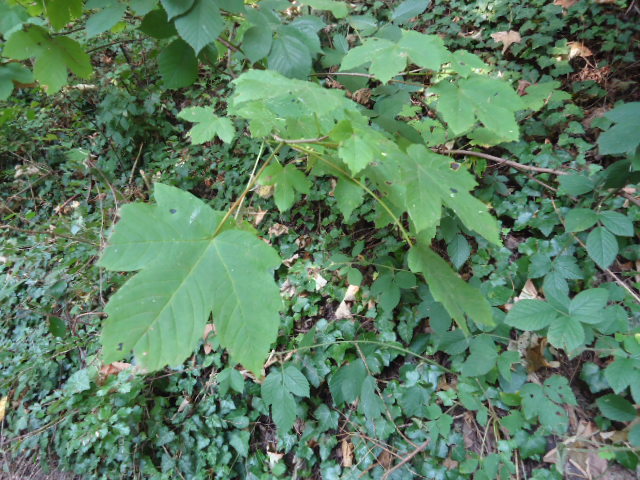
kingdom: Plantae
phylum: Tracheophyta
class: Magnoliopsida
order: Sapindales
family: Sapindaceae
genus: Acer
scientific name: Acer pseudoplatanus
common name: Sycamore
